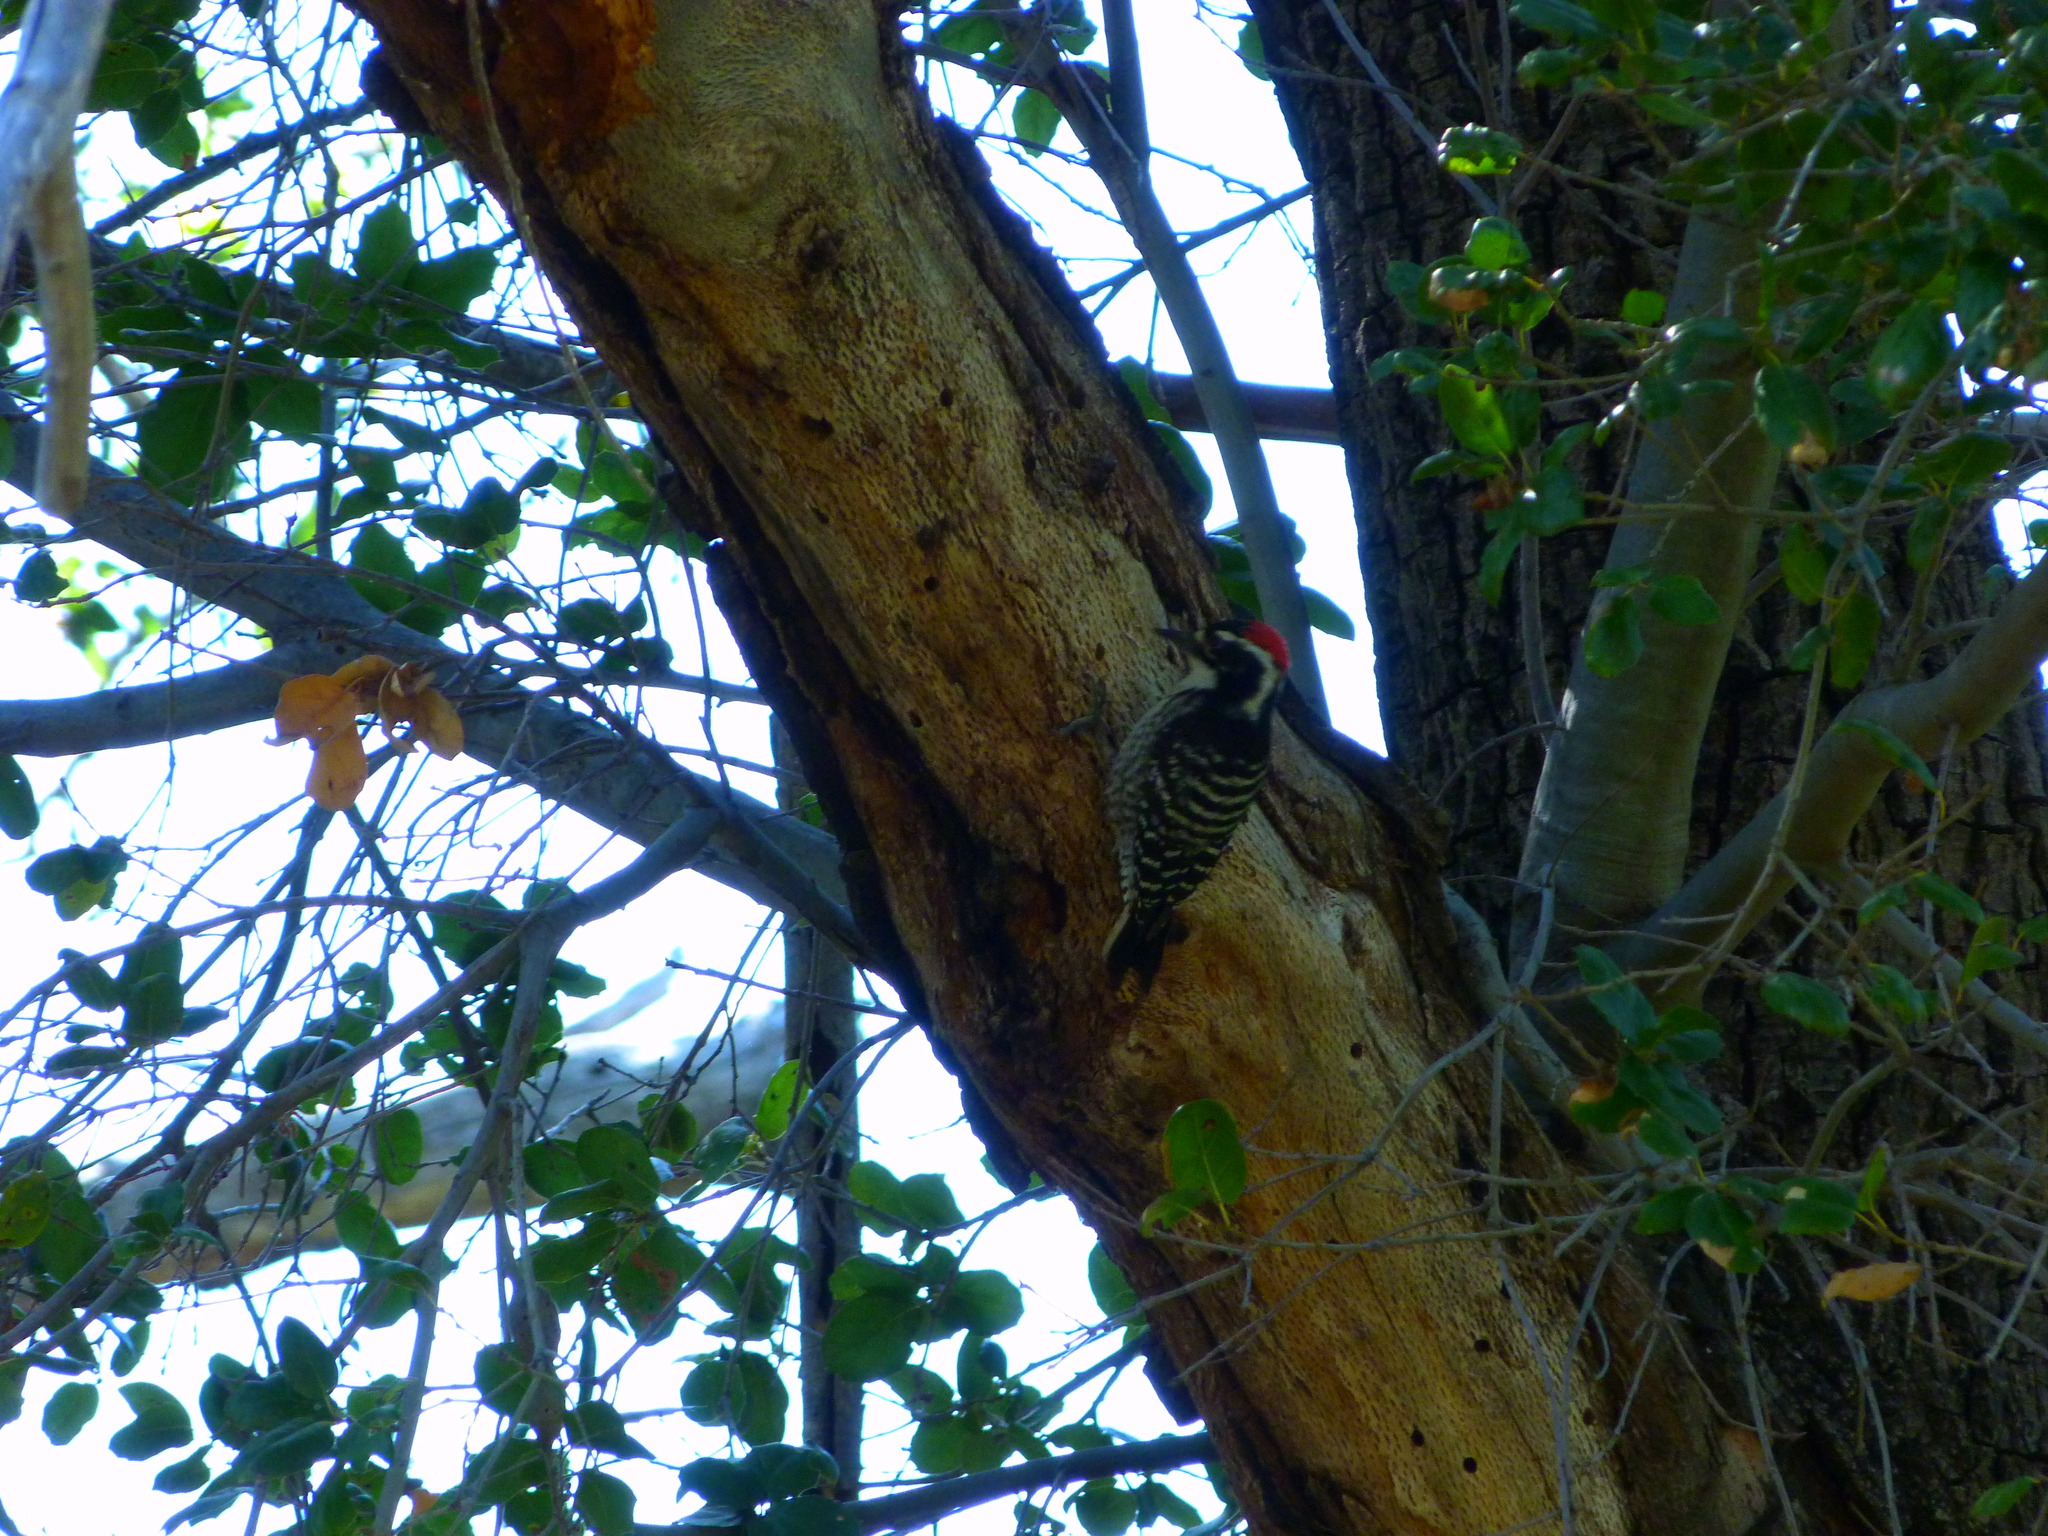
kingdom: Animalia
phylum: Chordata
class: Aves
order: Piciformes
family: Picidae
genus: Dryobates
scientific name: Dryobates nuttallii
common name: Nuttall's woodpecker
